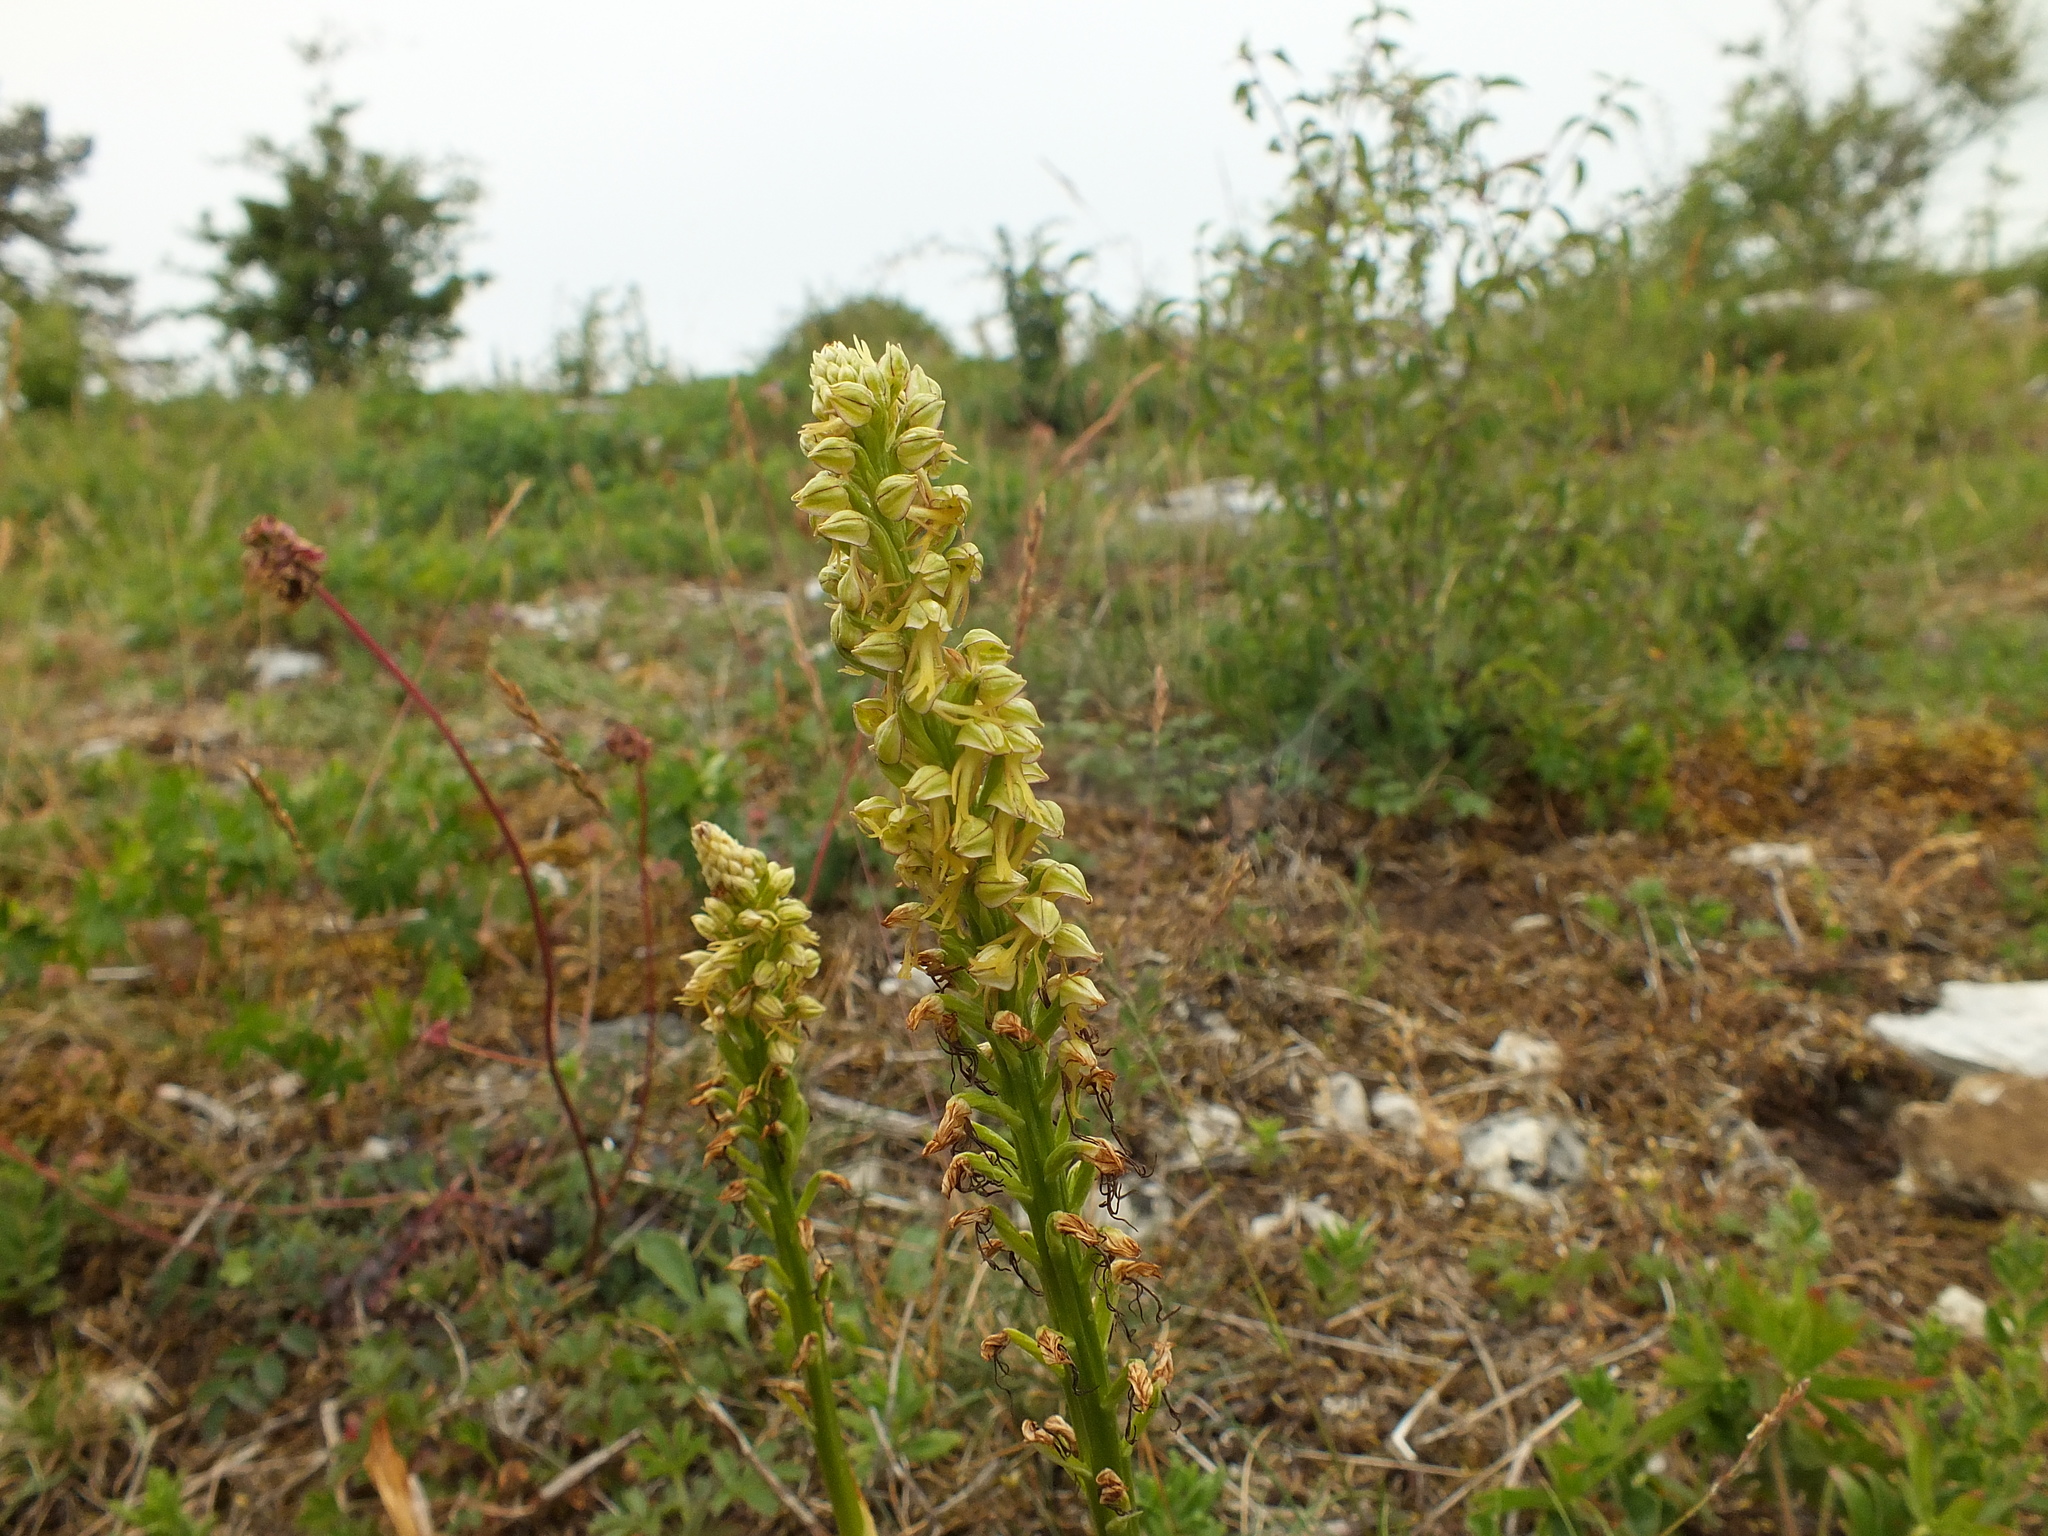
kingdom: Plantae
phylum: Tracheophyta
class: Liliopsida
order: Asparagales
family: Orchidaceae
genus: Orchis
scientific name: Orchis anthropophora
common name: Man orchid
